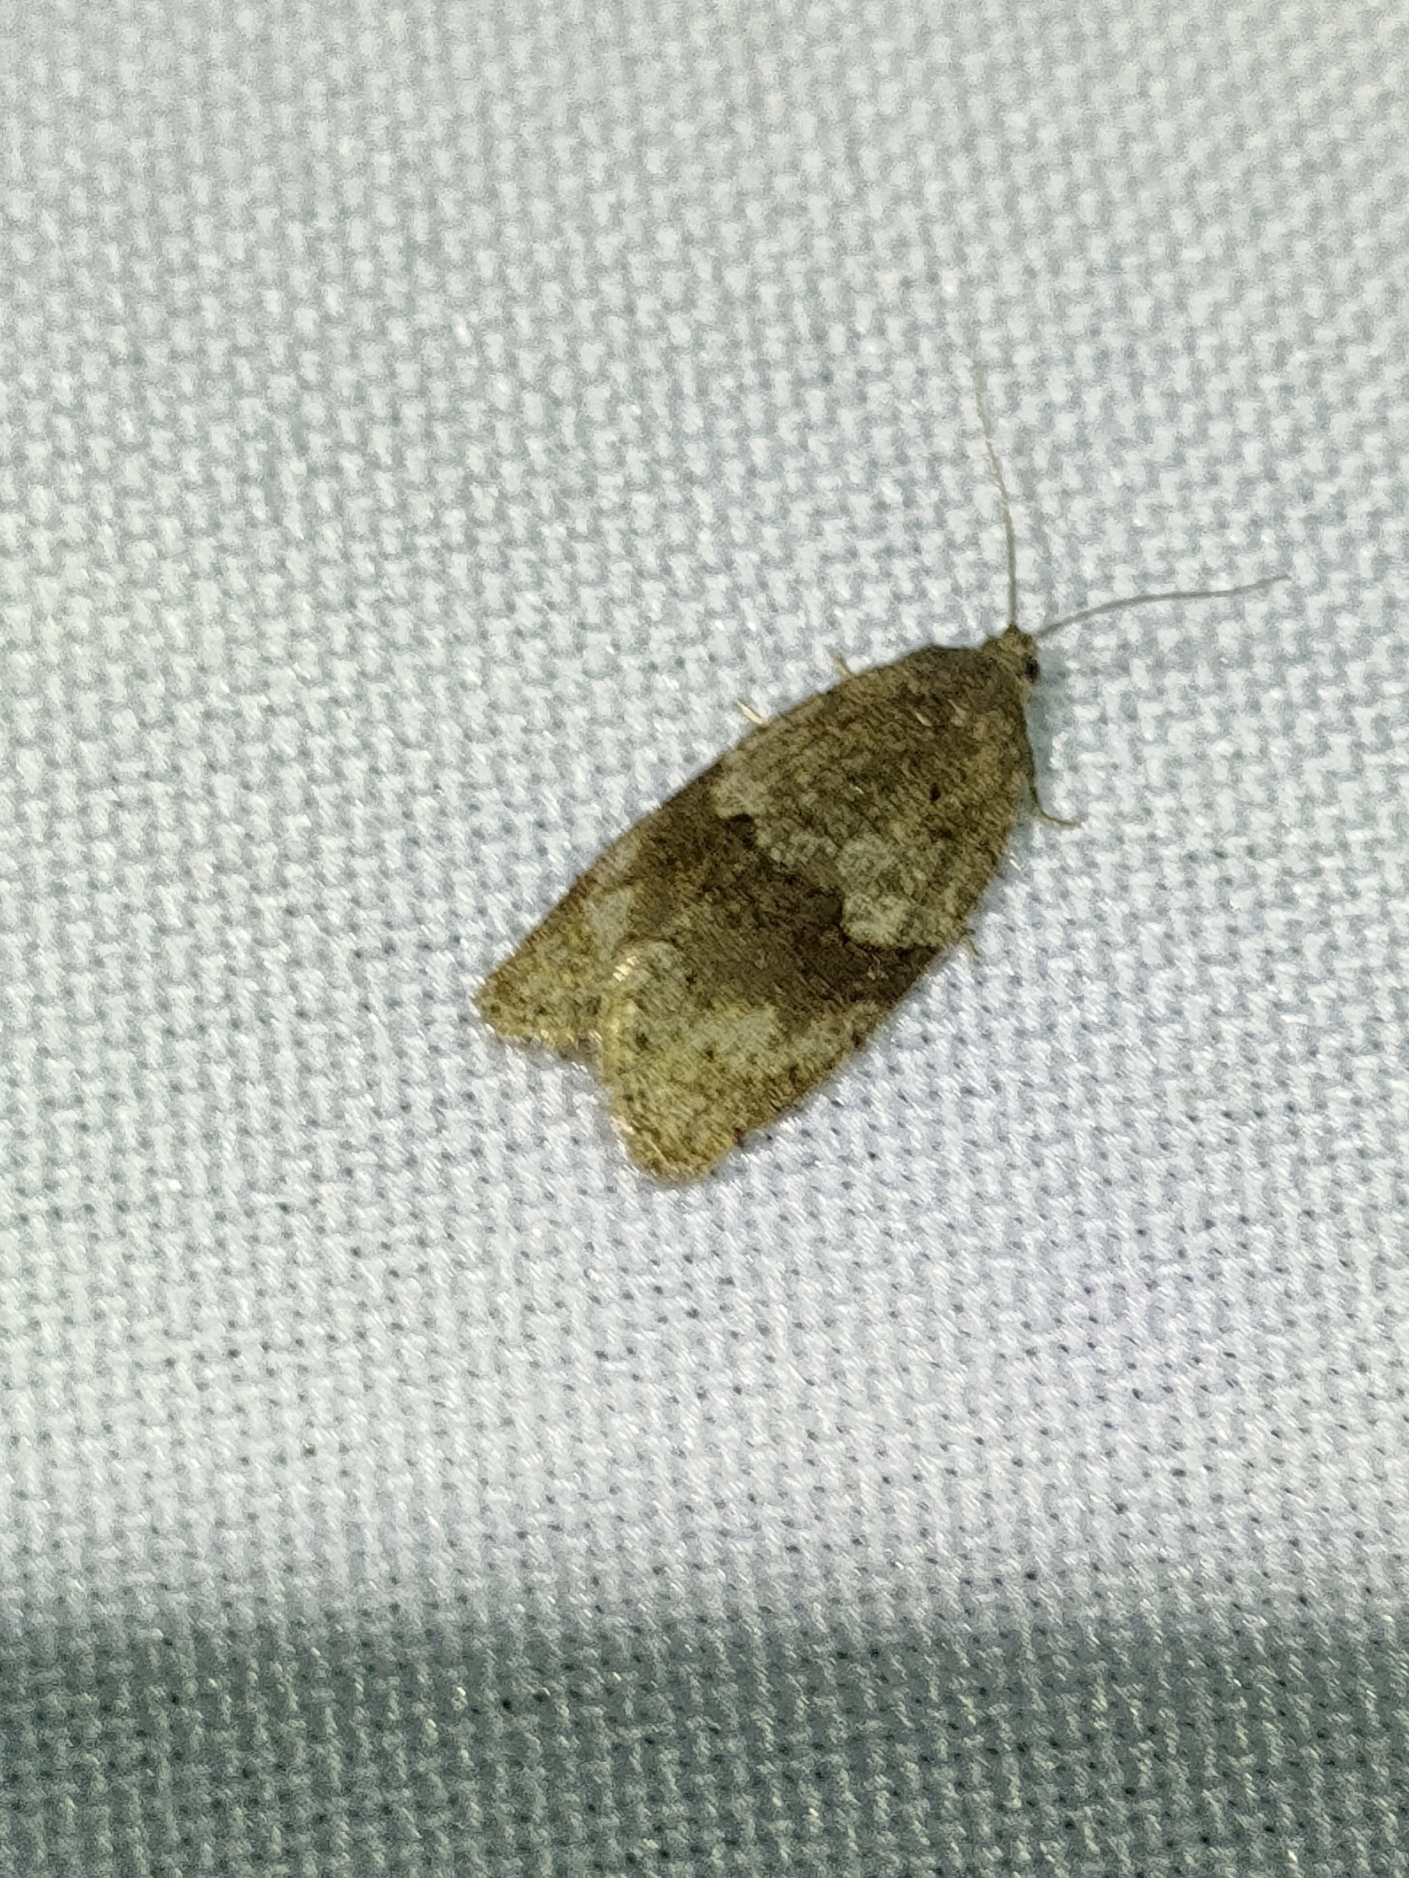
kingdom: Animalia
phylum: Arthropoda
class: Insecta
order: Lepidoptera
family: Tortricidae
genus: Syndemis
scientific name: Syndemis musculana
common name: Dark-barred twist
